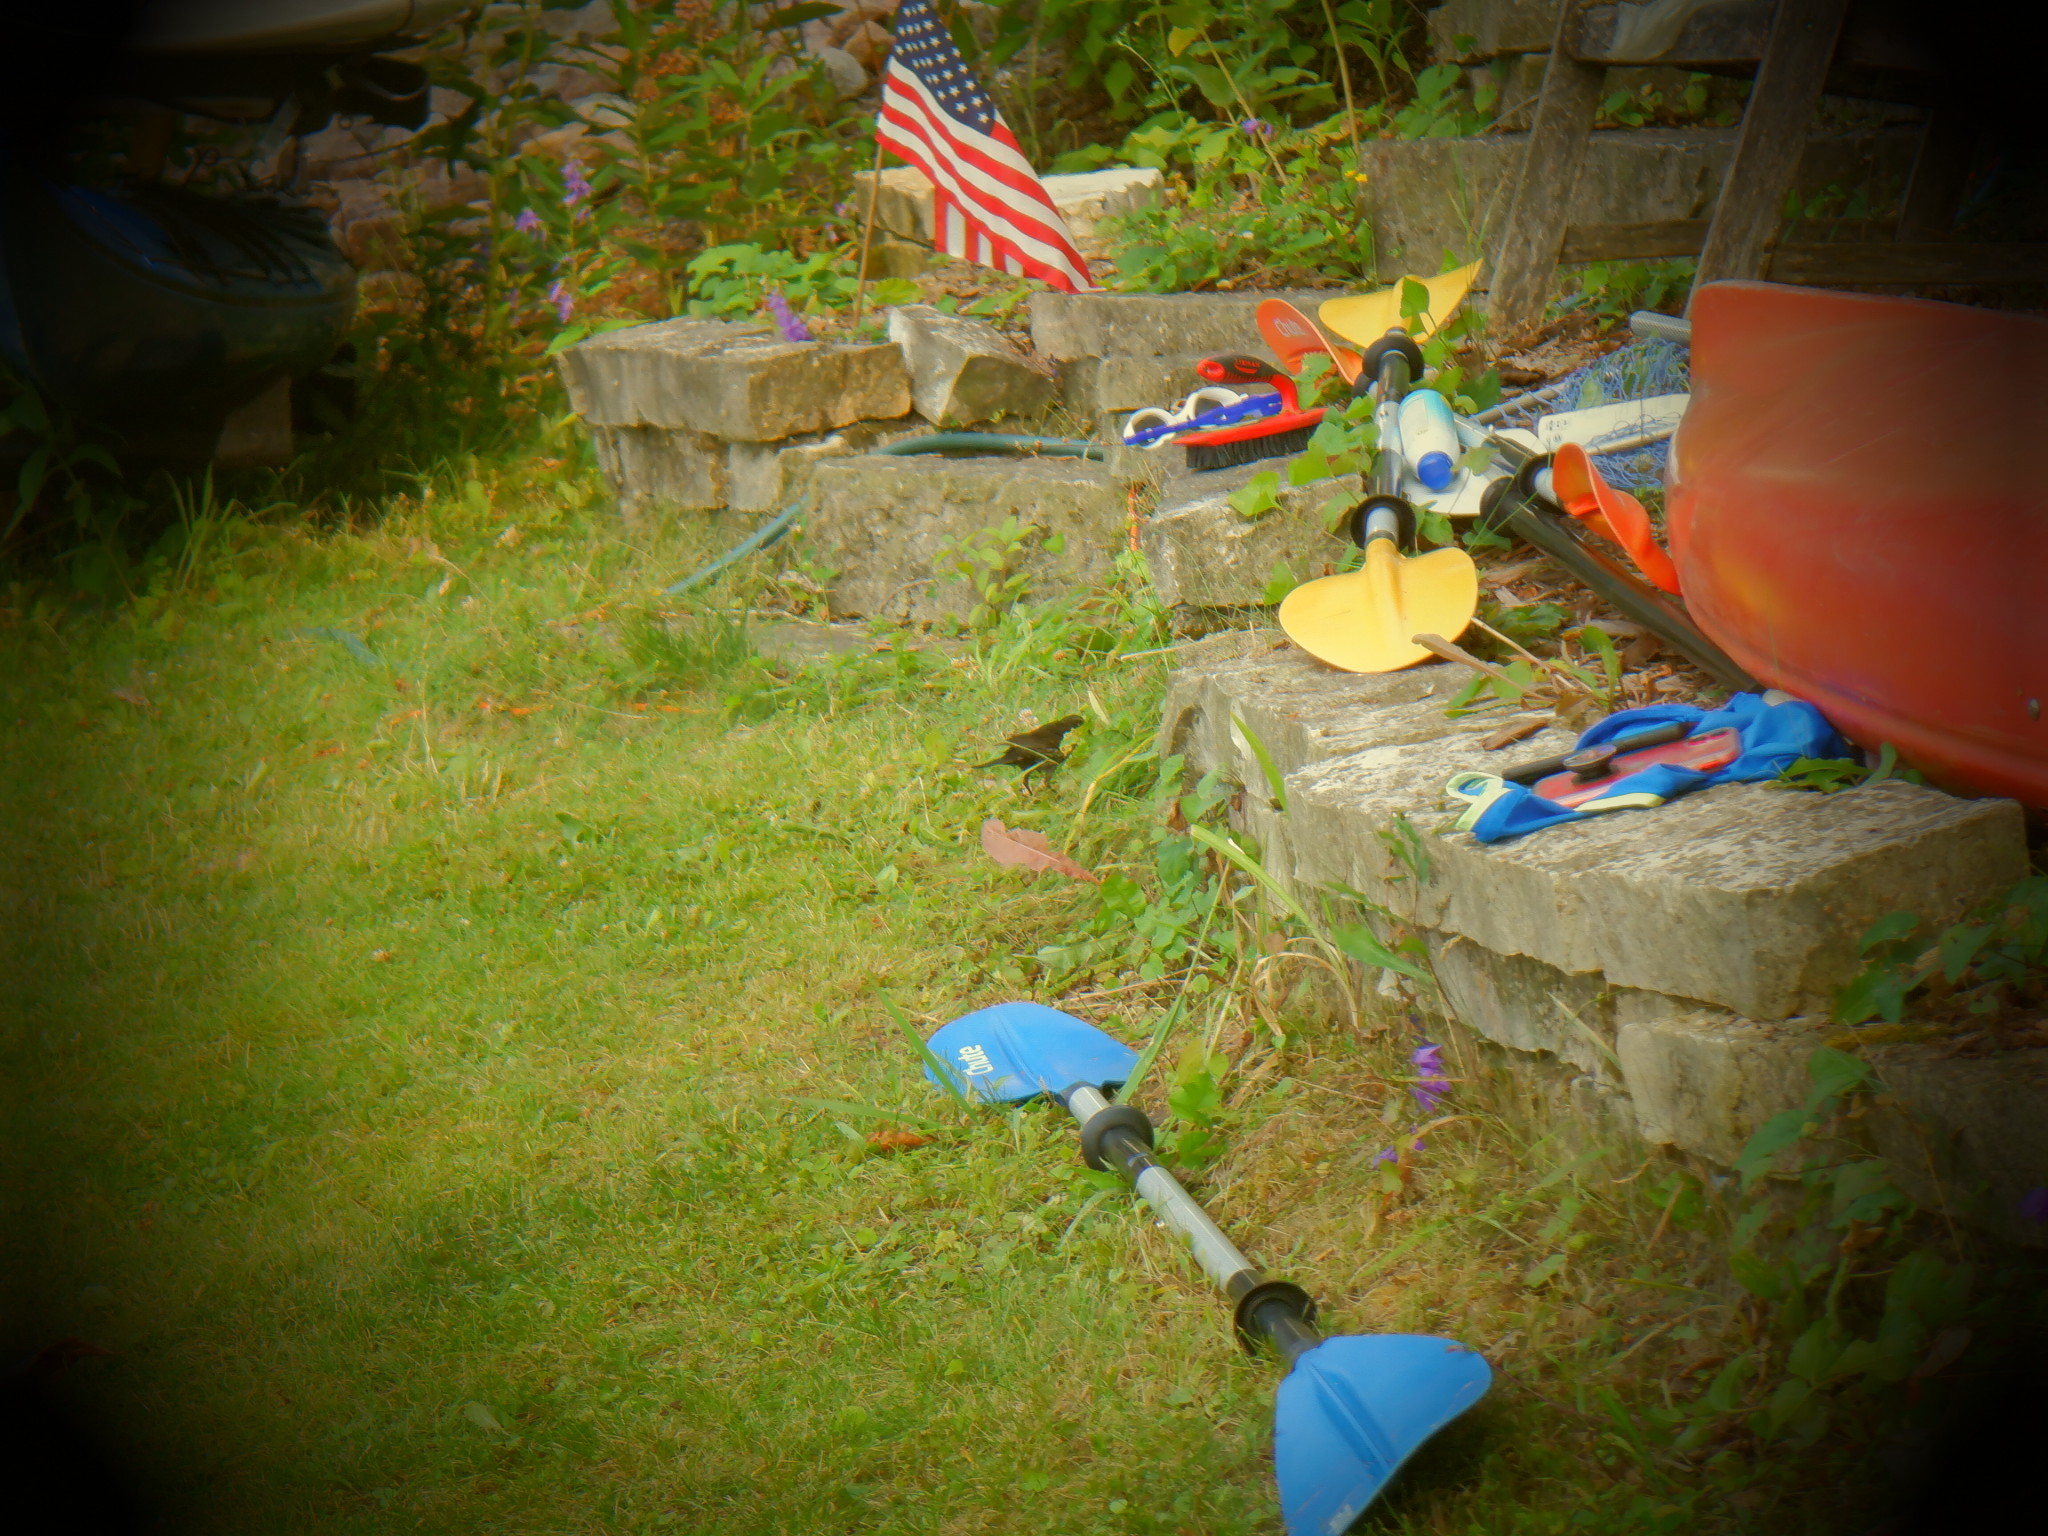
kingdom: Animalia
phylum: Chordata
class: Aves
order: Passeriformes
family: Icteridae
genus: Agelaius
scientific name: Agelaius phoeniceus
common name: Red-winged blackbird
